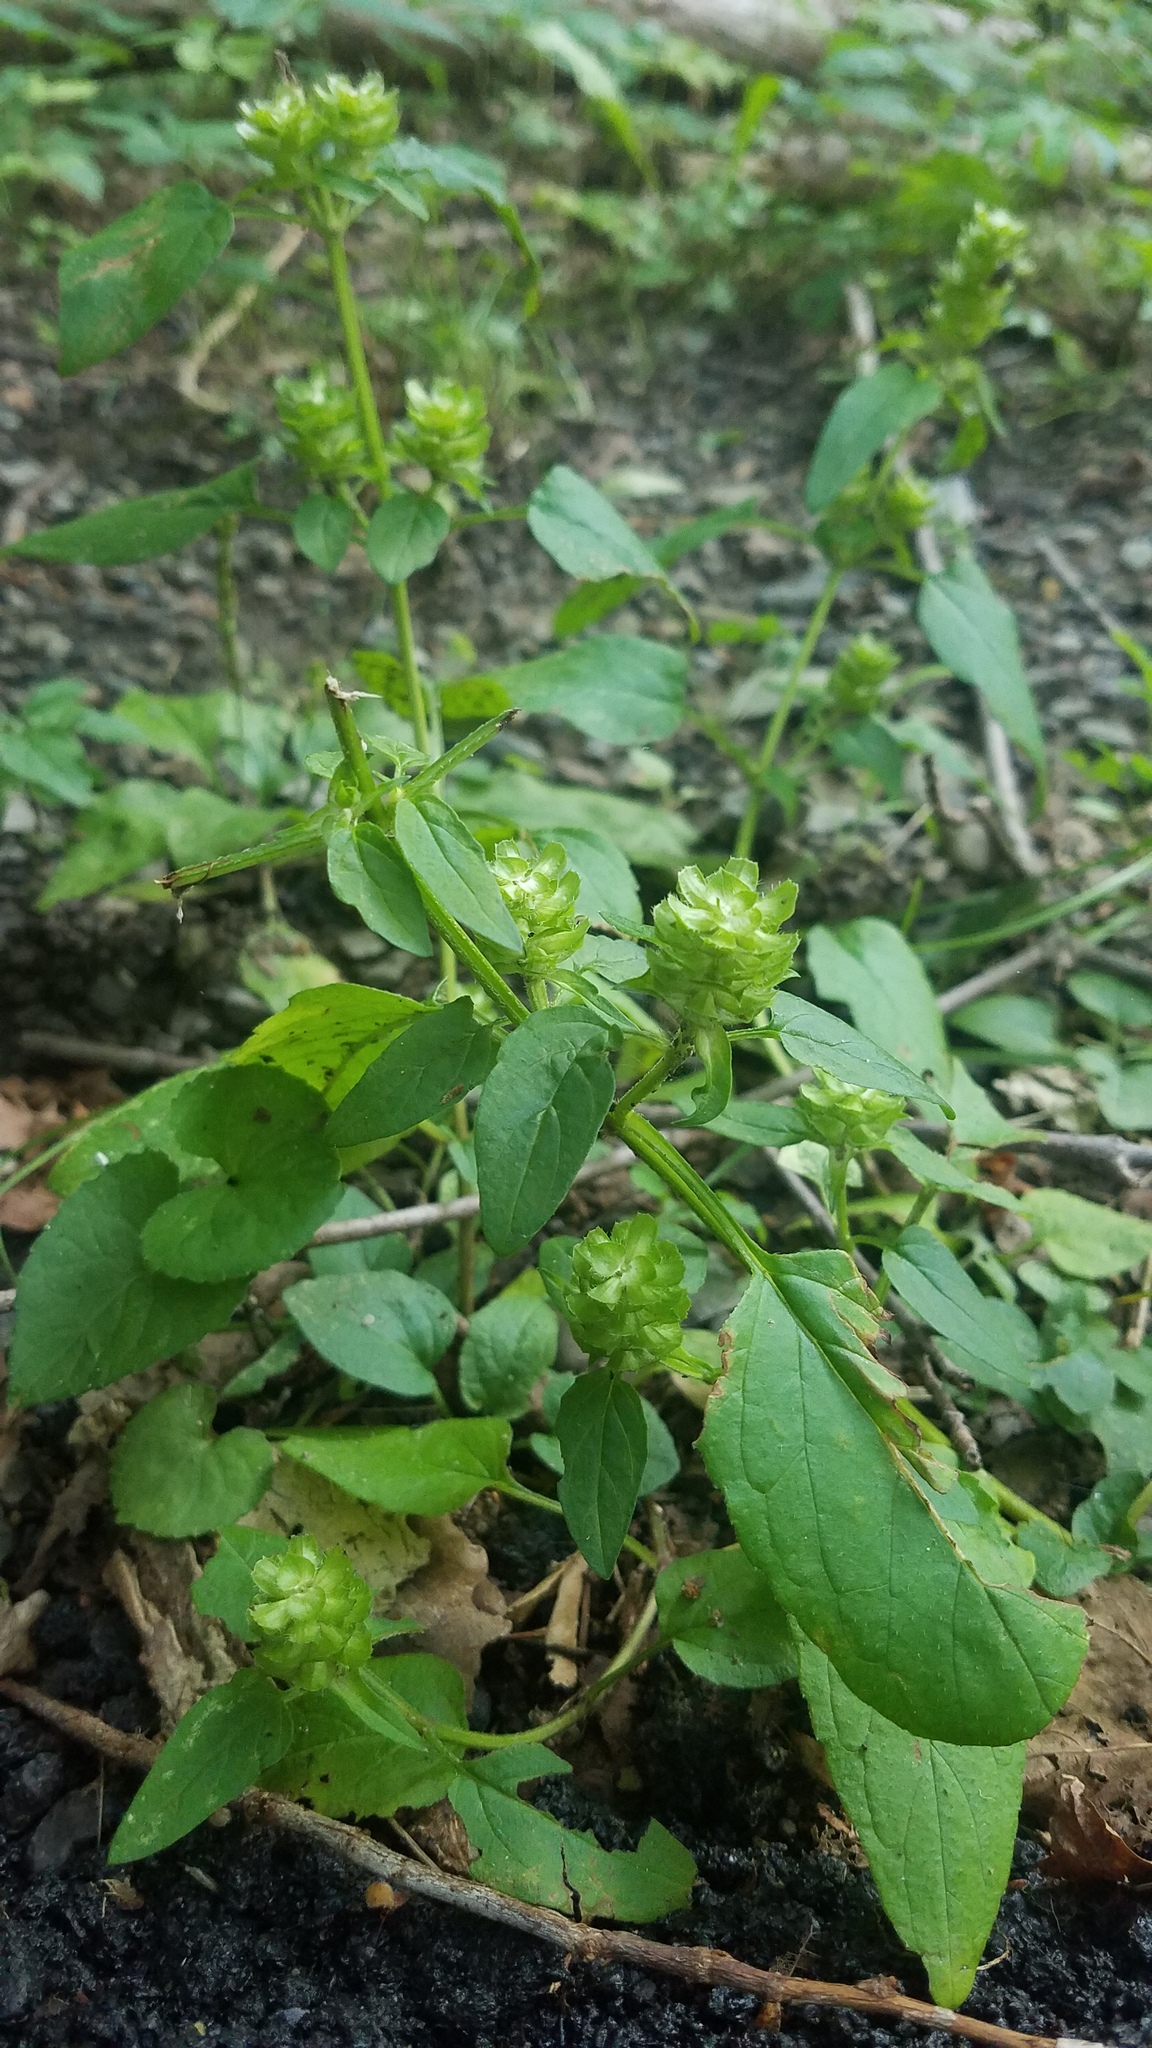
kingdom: Plantae
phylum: Tracheophyta
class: Magnoliopsida
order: Lamiales
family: Lamiaceae
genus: Prunella
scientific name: Prunella vulgaris
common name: Heal-all
